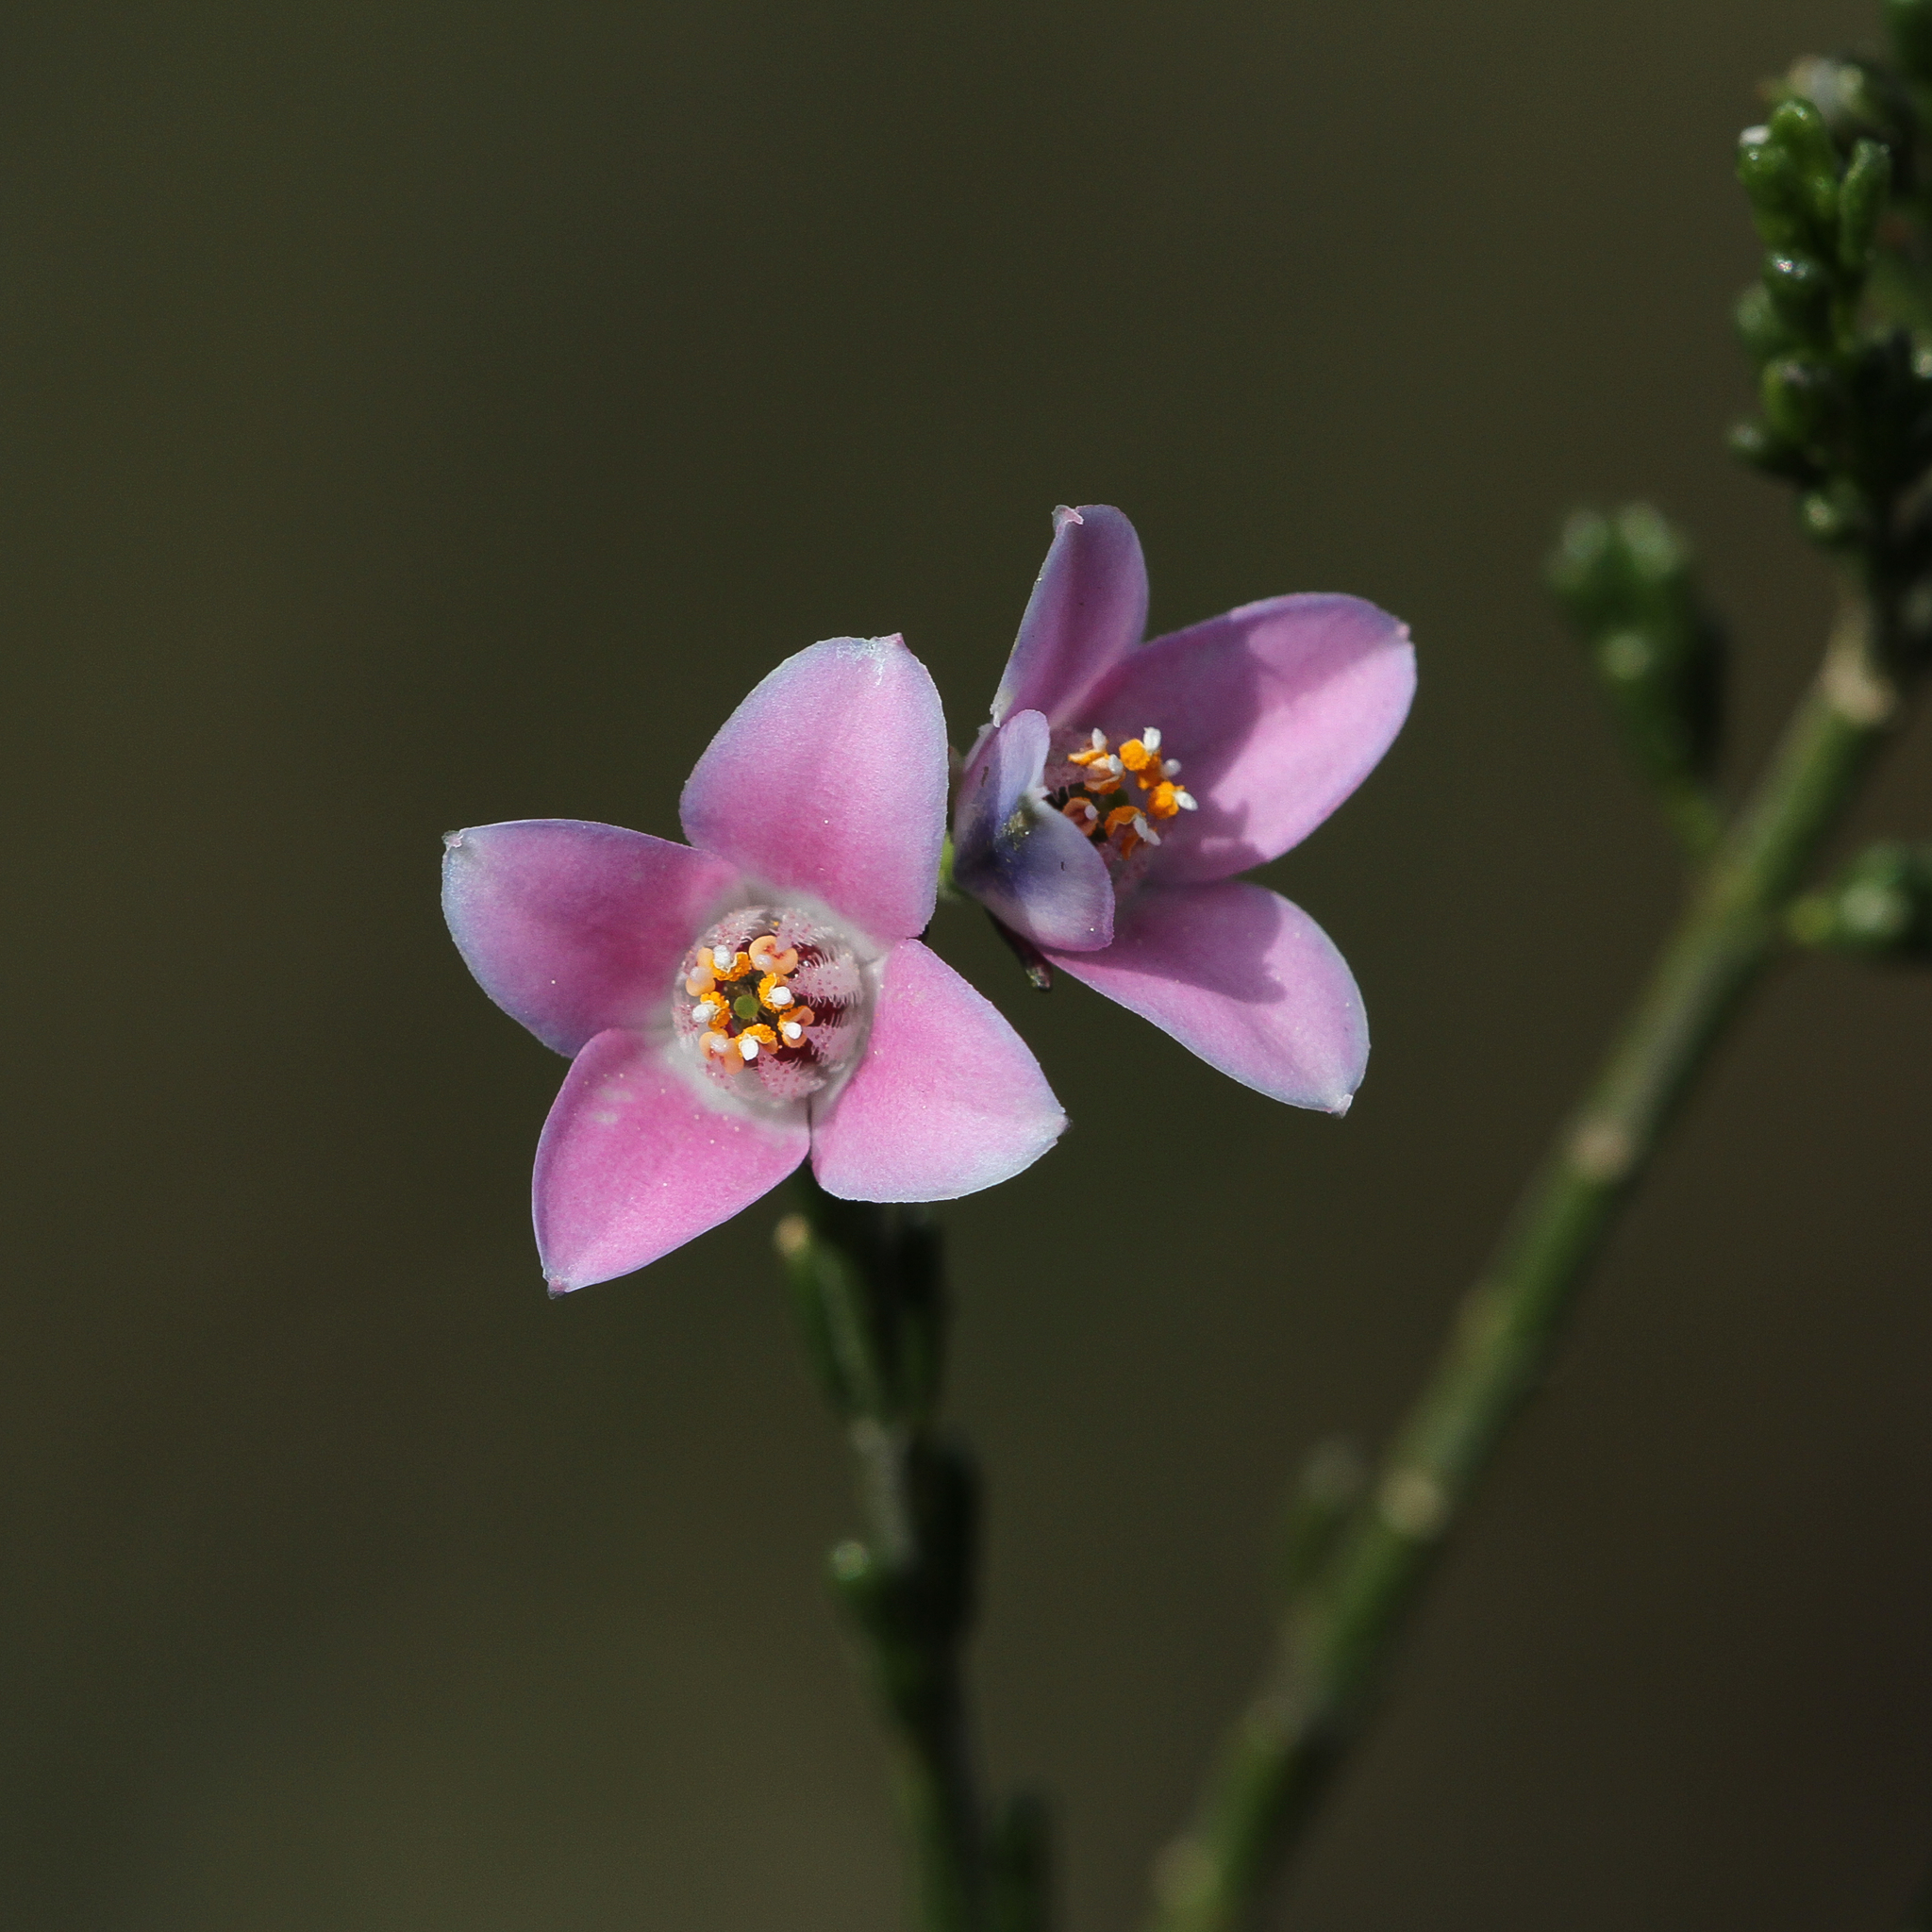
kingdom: Plantae
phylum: Tracheophyta
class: Magnoliopsida
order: Sapindales
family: Rutaceae
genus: Cyanothamnus
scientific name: Cyanothamnus coerulescens
